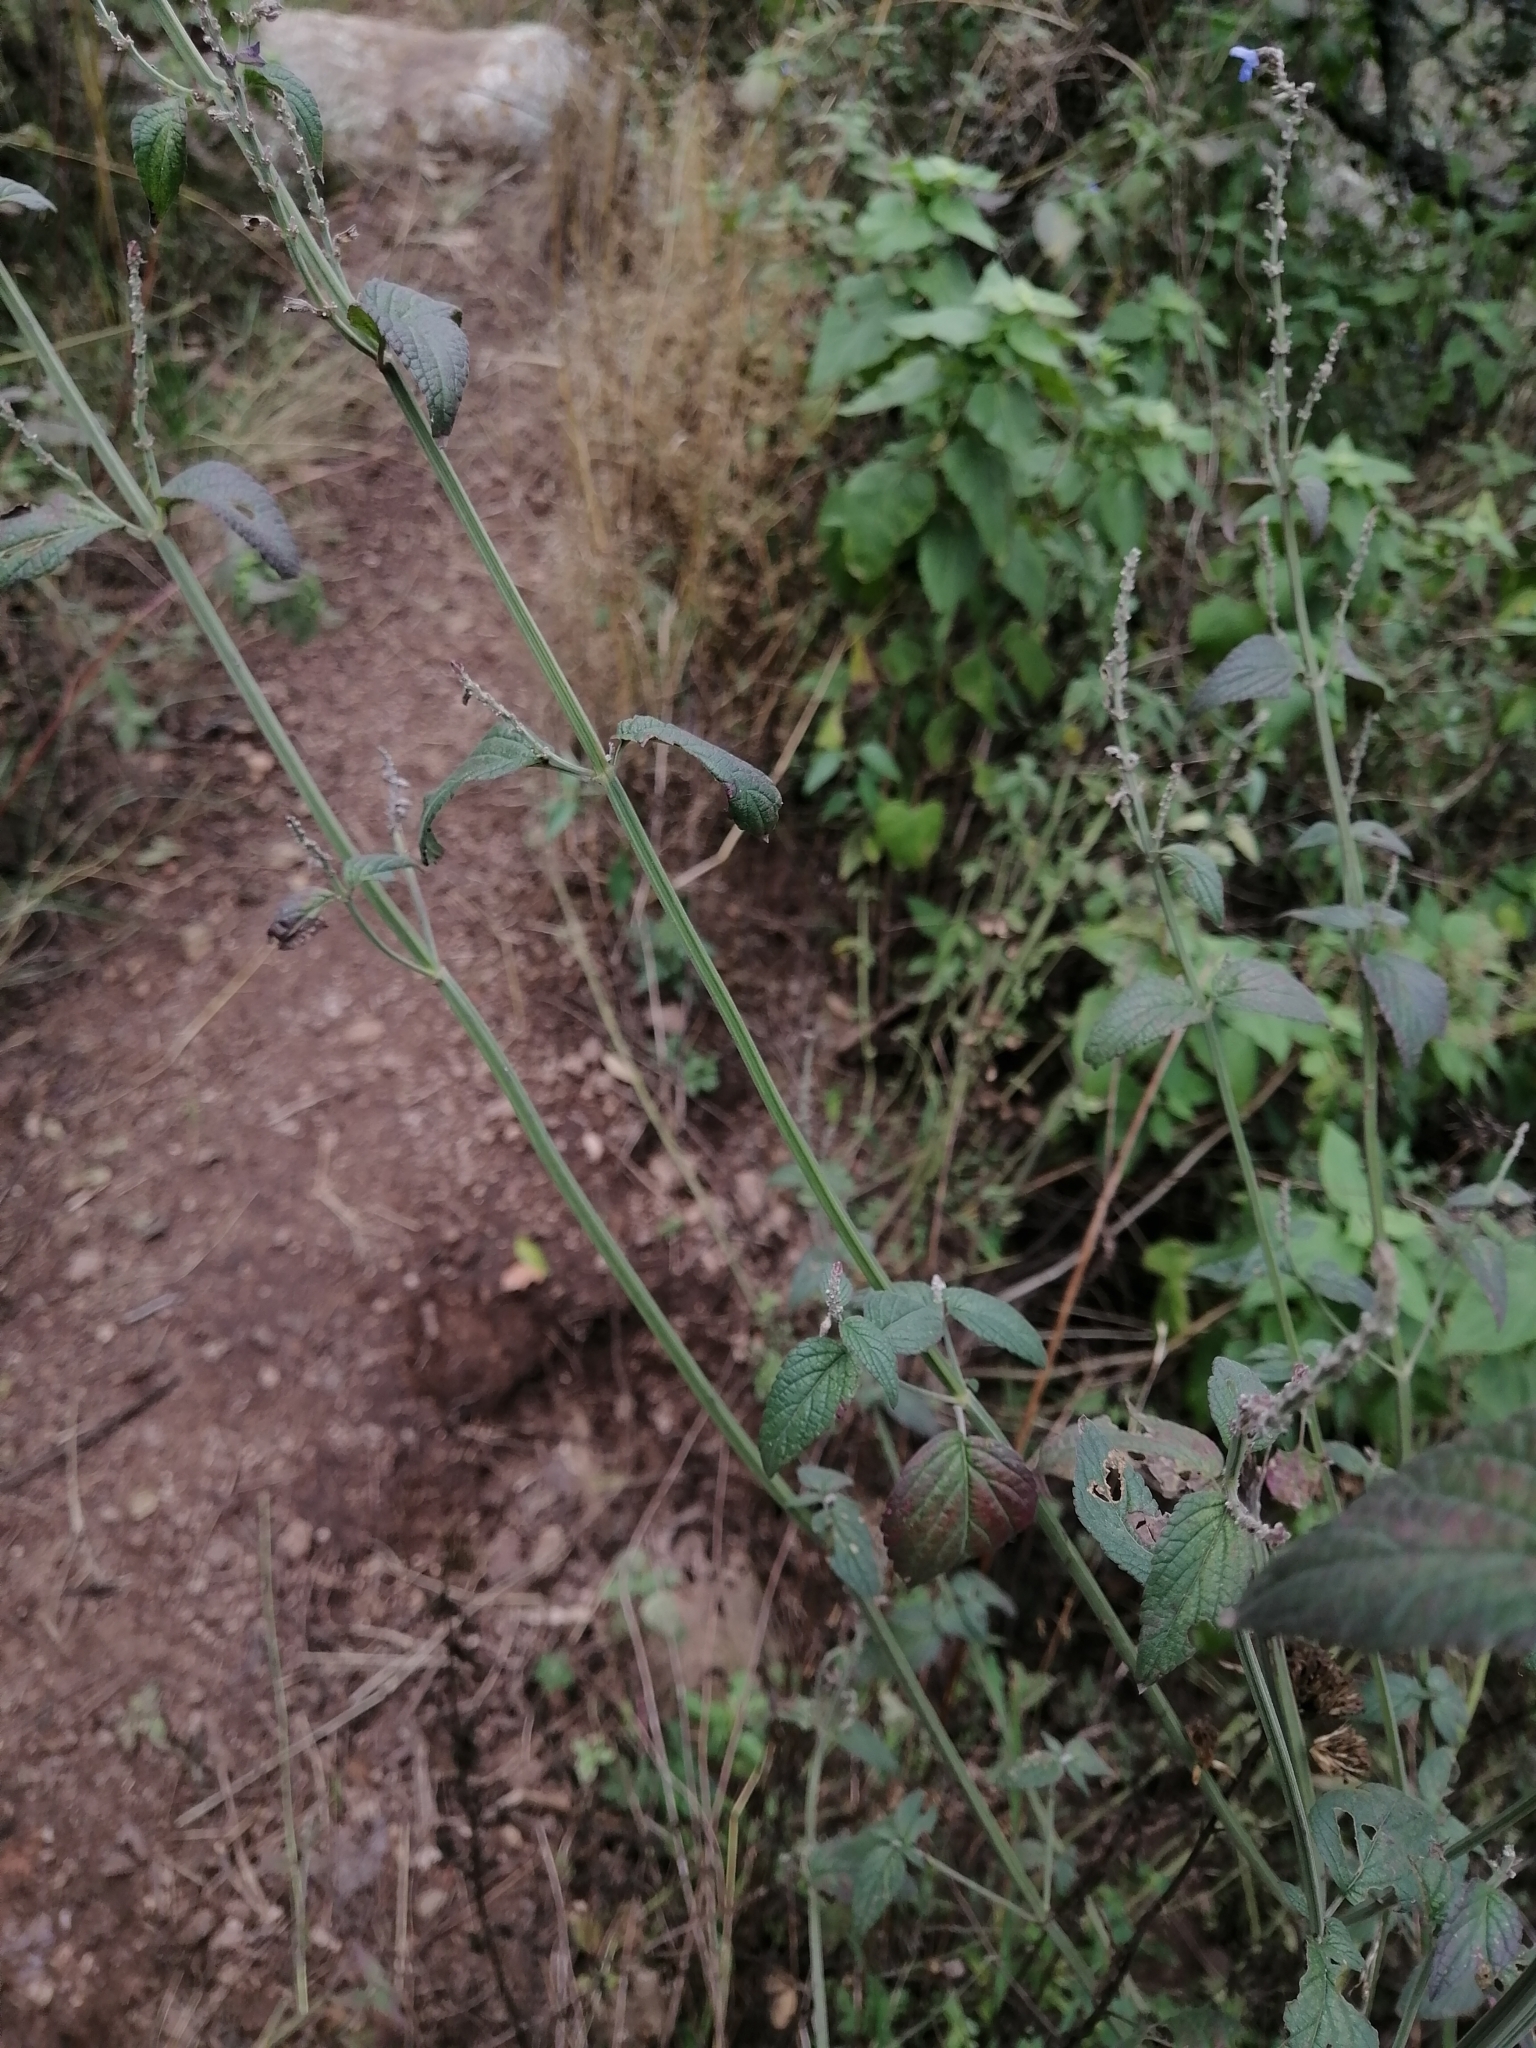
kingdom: Plantae
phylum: Tracheophyta
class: Magnoliopsida
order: Lamiales
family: Lamiaceae
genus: Salvia
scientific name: Salvia polystachia
